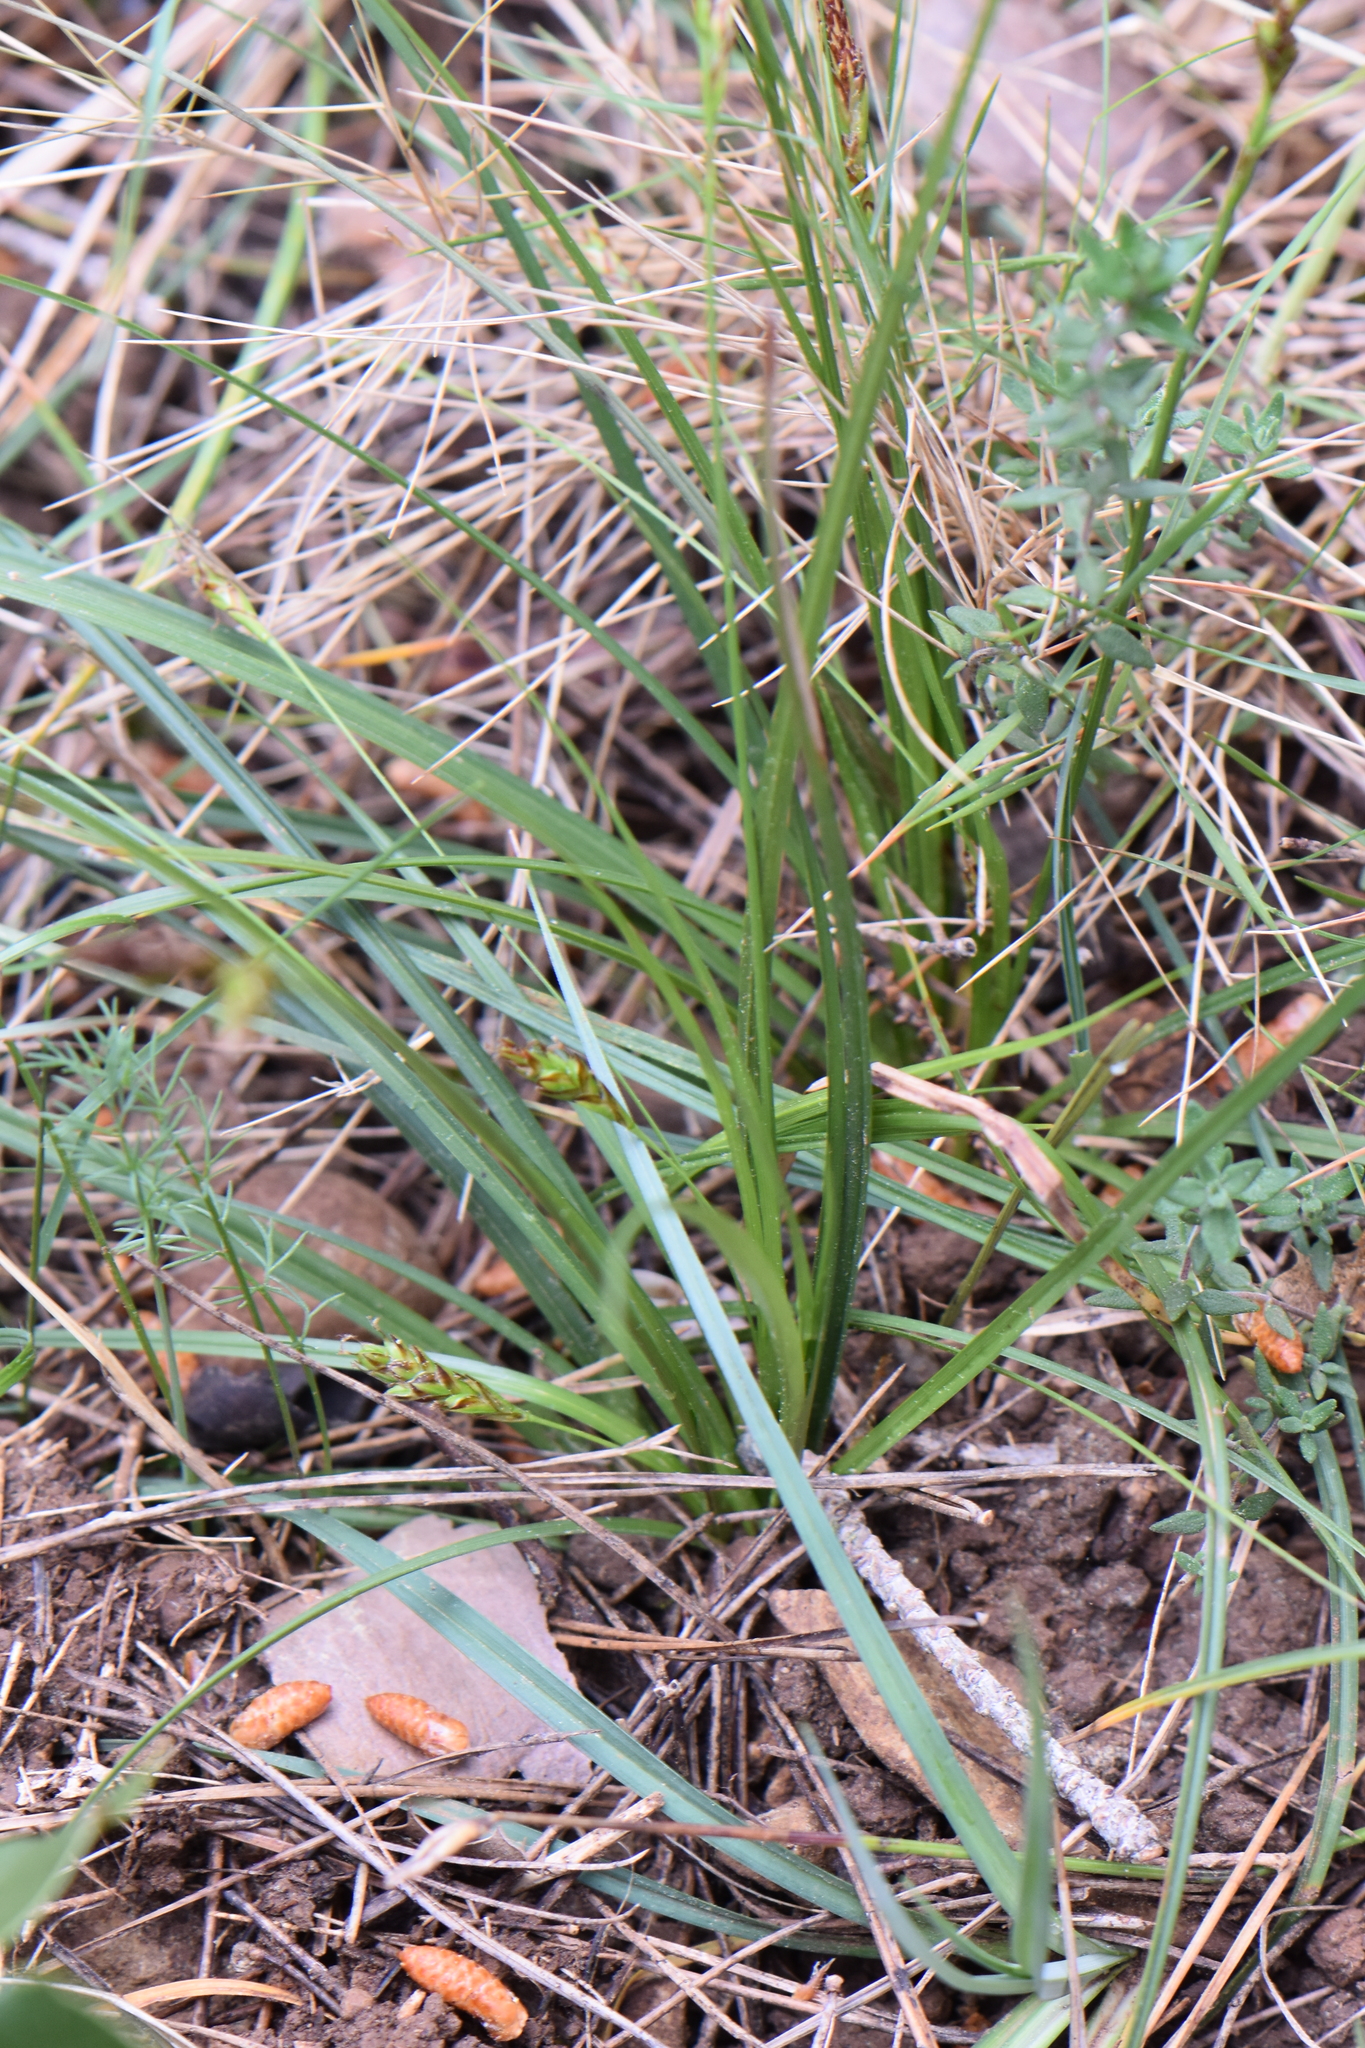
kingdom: Plantae
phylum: Tracheophyta
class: Liliopsida
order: Poales
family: Cyperaceae
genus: Carex
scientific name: Carex halleriana
